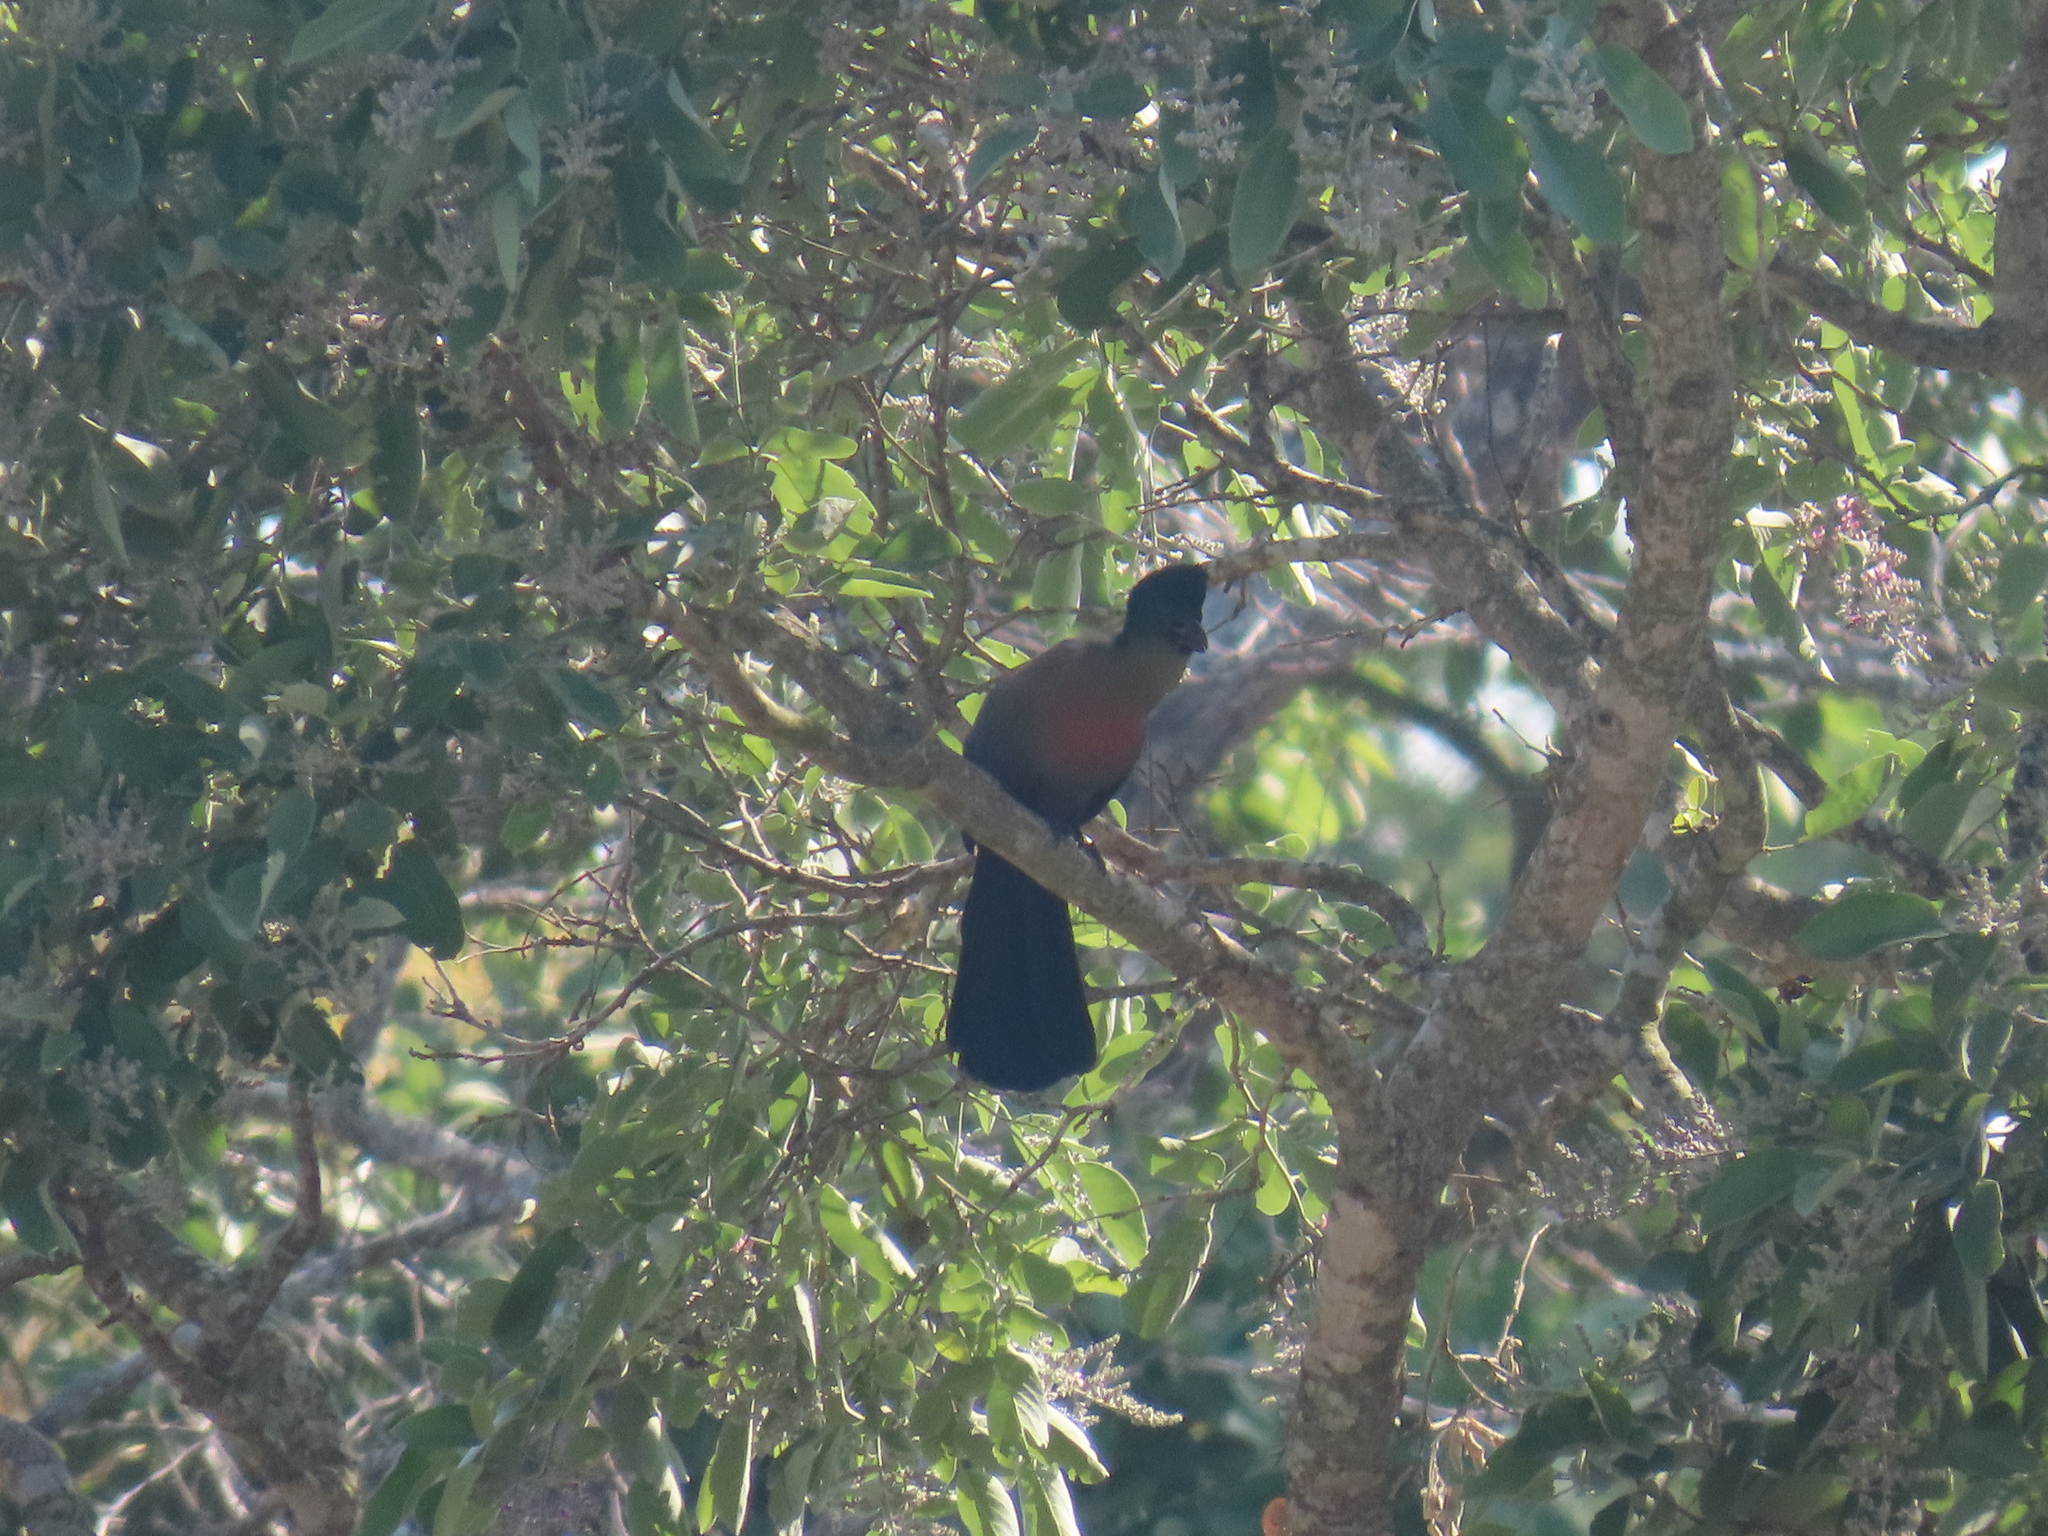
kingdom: Animalia
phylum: Chordata
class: Aves
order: Musophagiformes
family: Musophagidae
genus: Tauraco
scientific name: Tauraco porphyreolophus
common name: Purple-crested turaco
